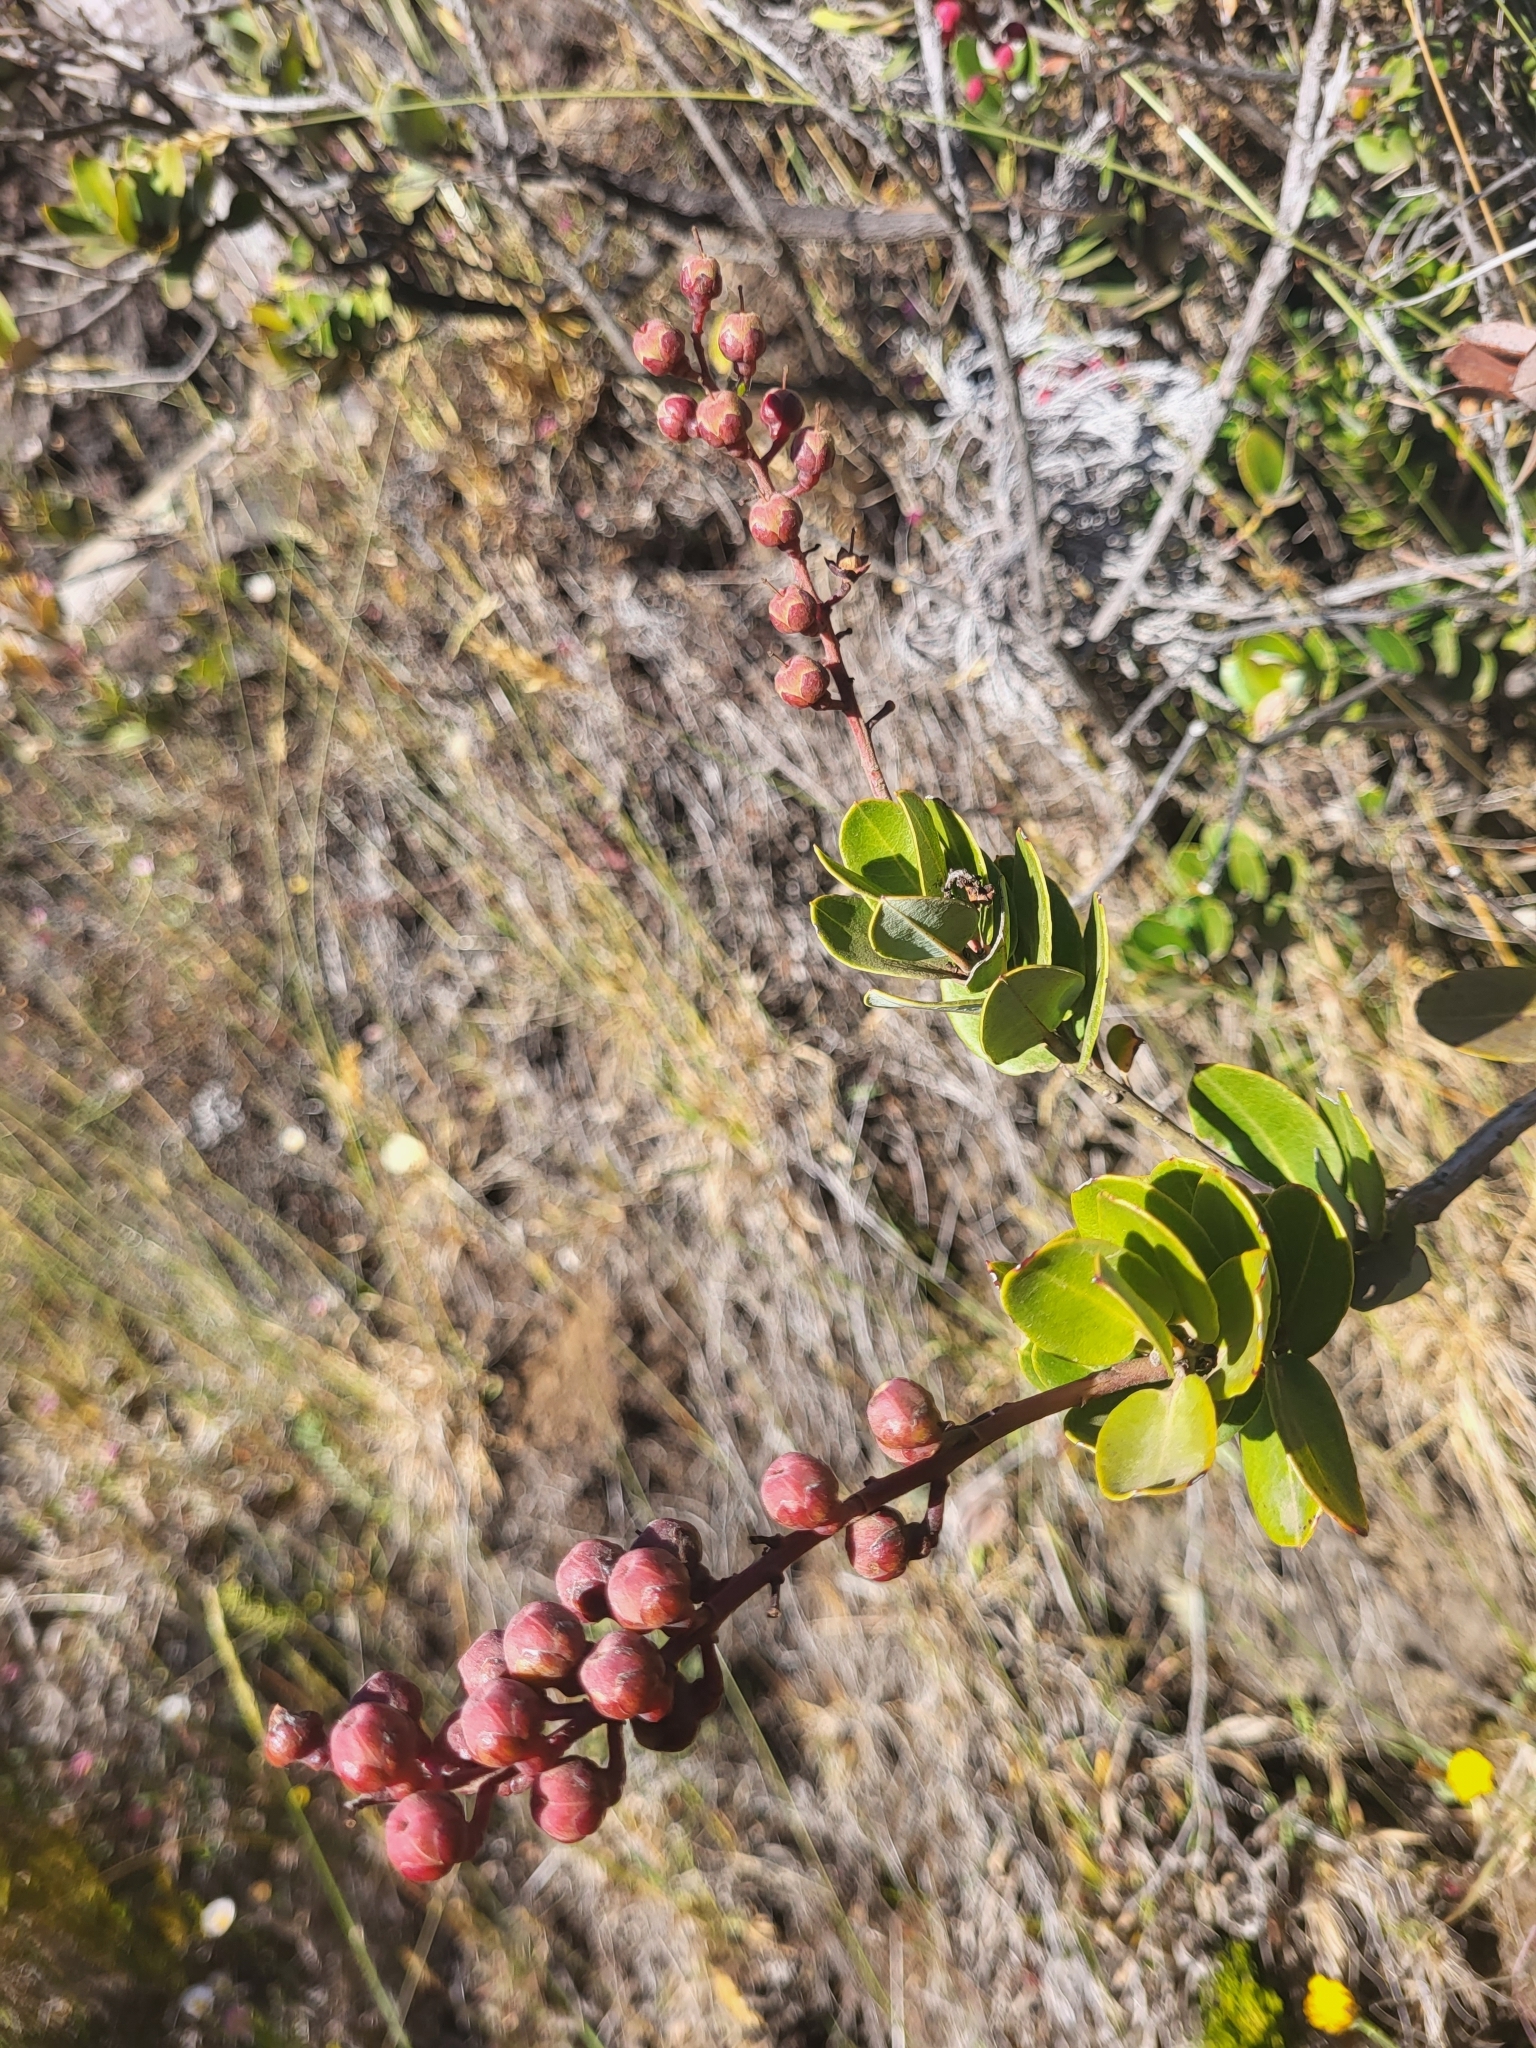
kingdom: Plantae
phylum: Tracheophyta
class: Magnoliopsida
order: Ericales
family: Ericaceae
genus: Agarista
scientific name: Agarista buxifolia
